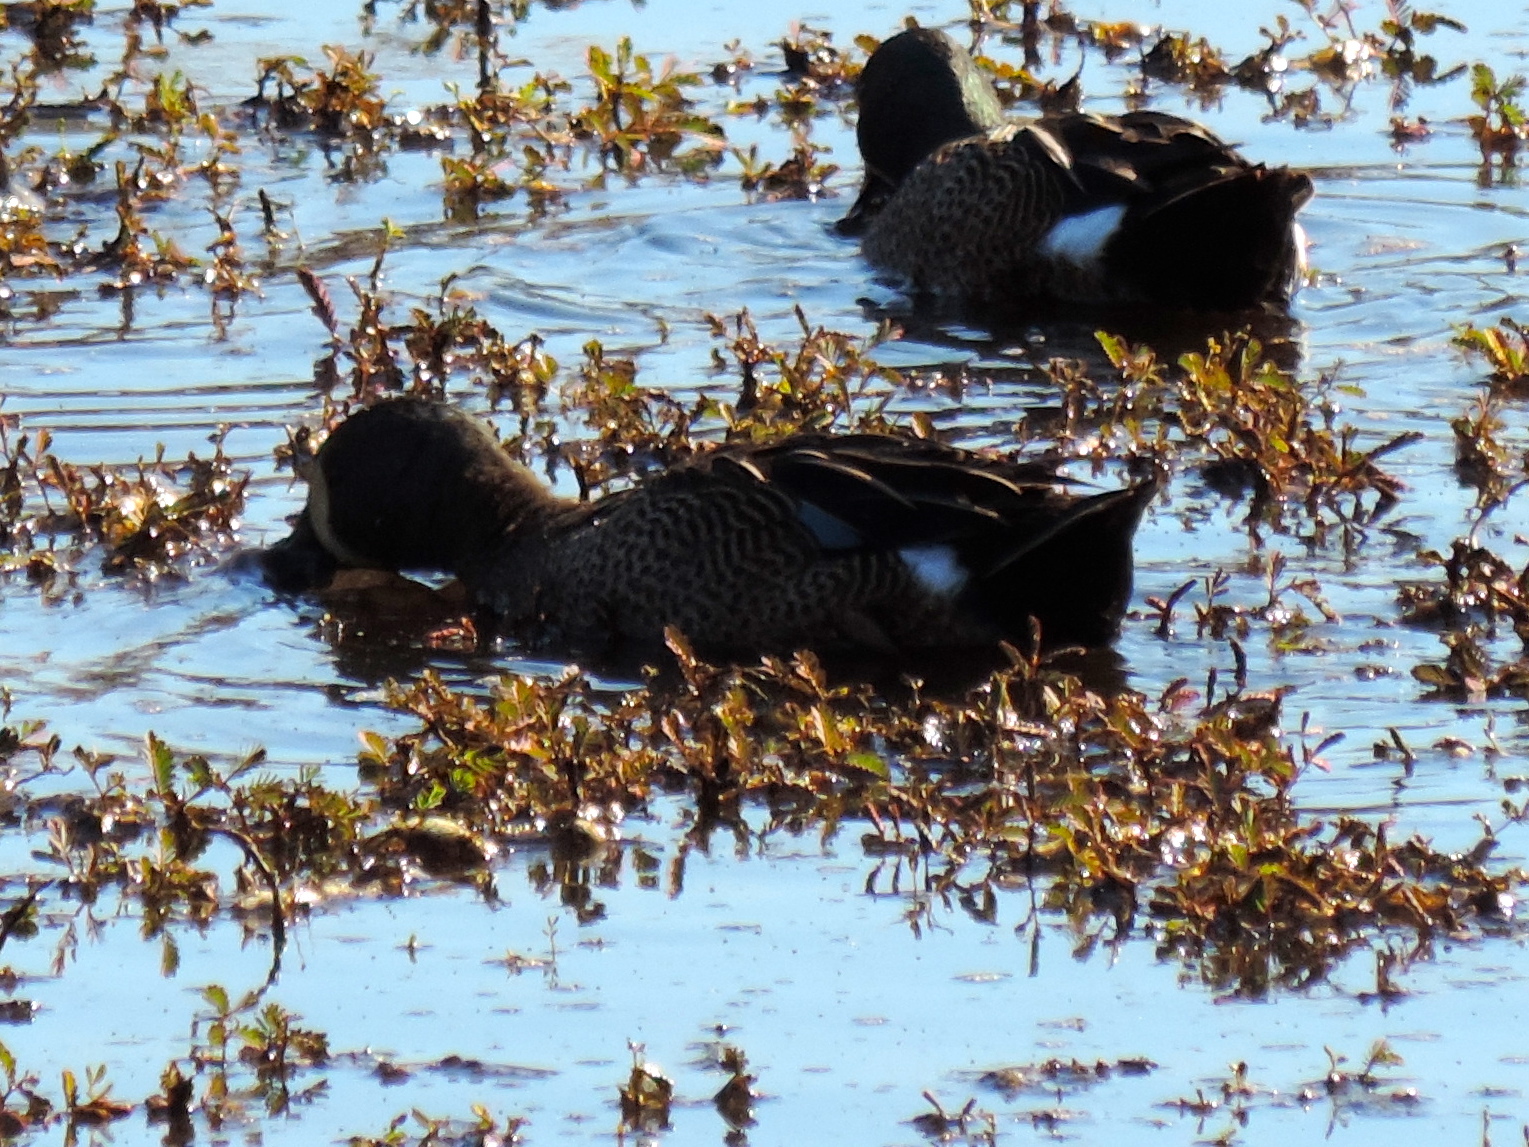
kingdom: Animalia
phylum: Chordata
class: Aves
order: Anseriformes
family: Anatidae
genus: Spatula
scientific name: Spatula discors
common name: Blue-winged teal
